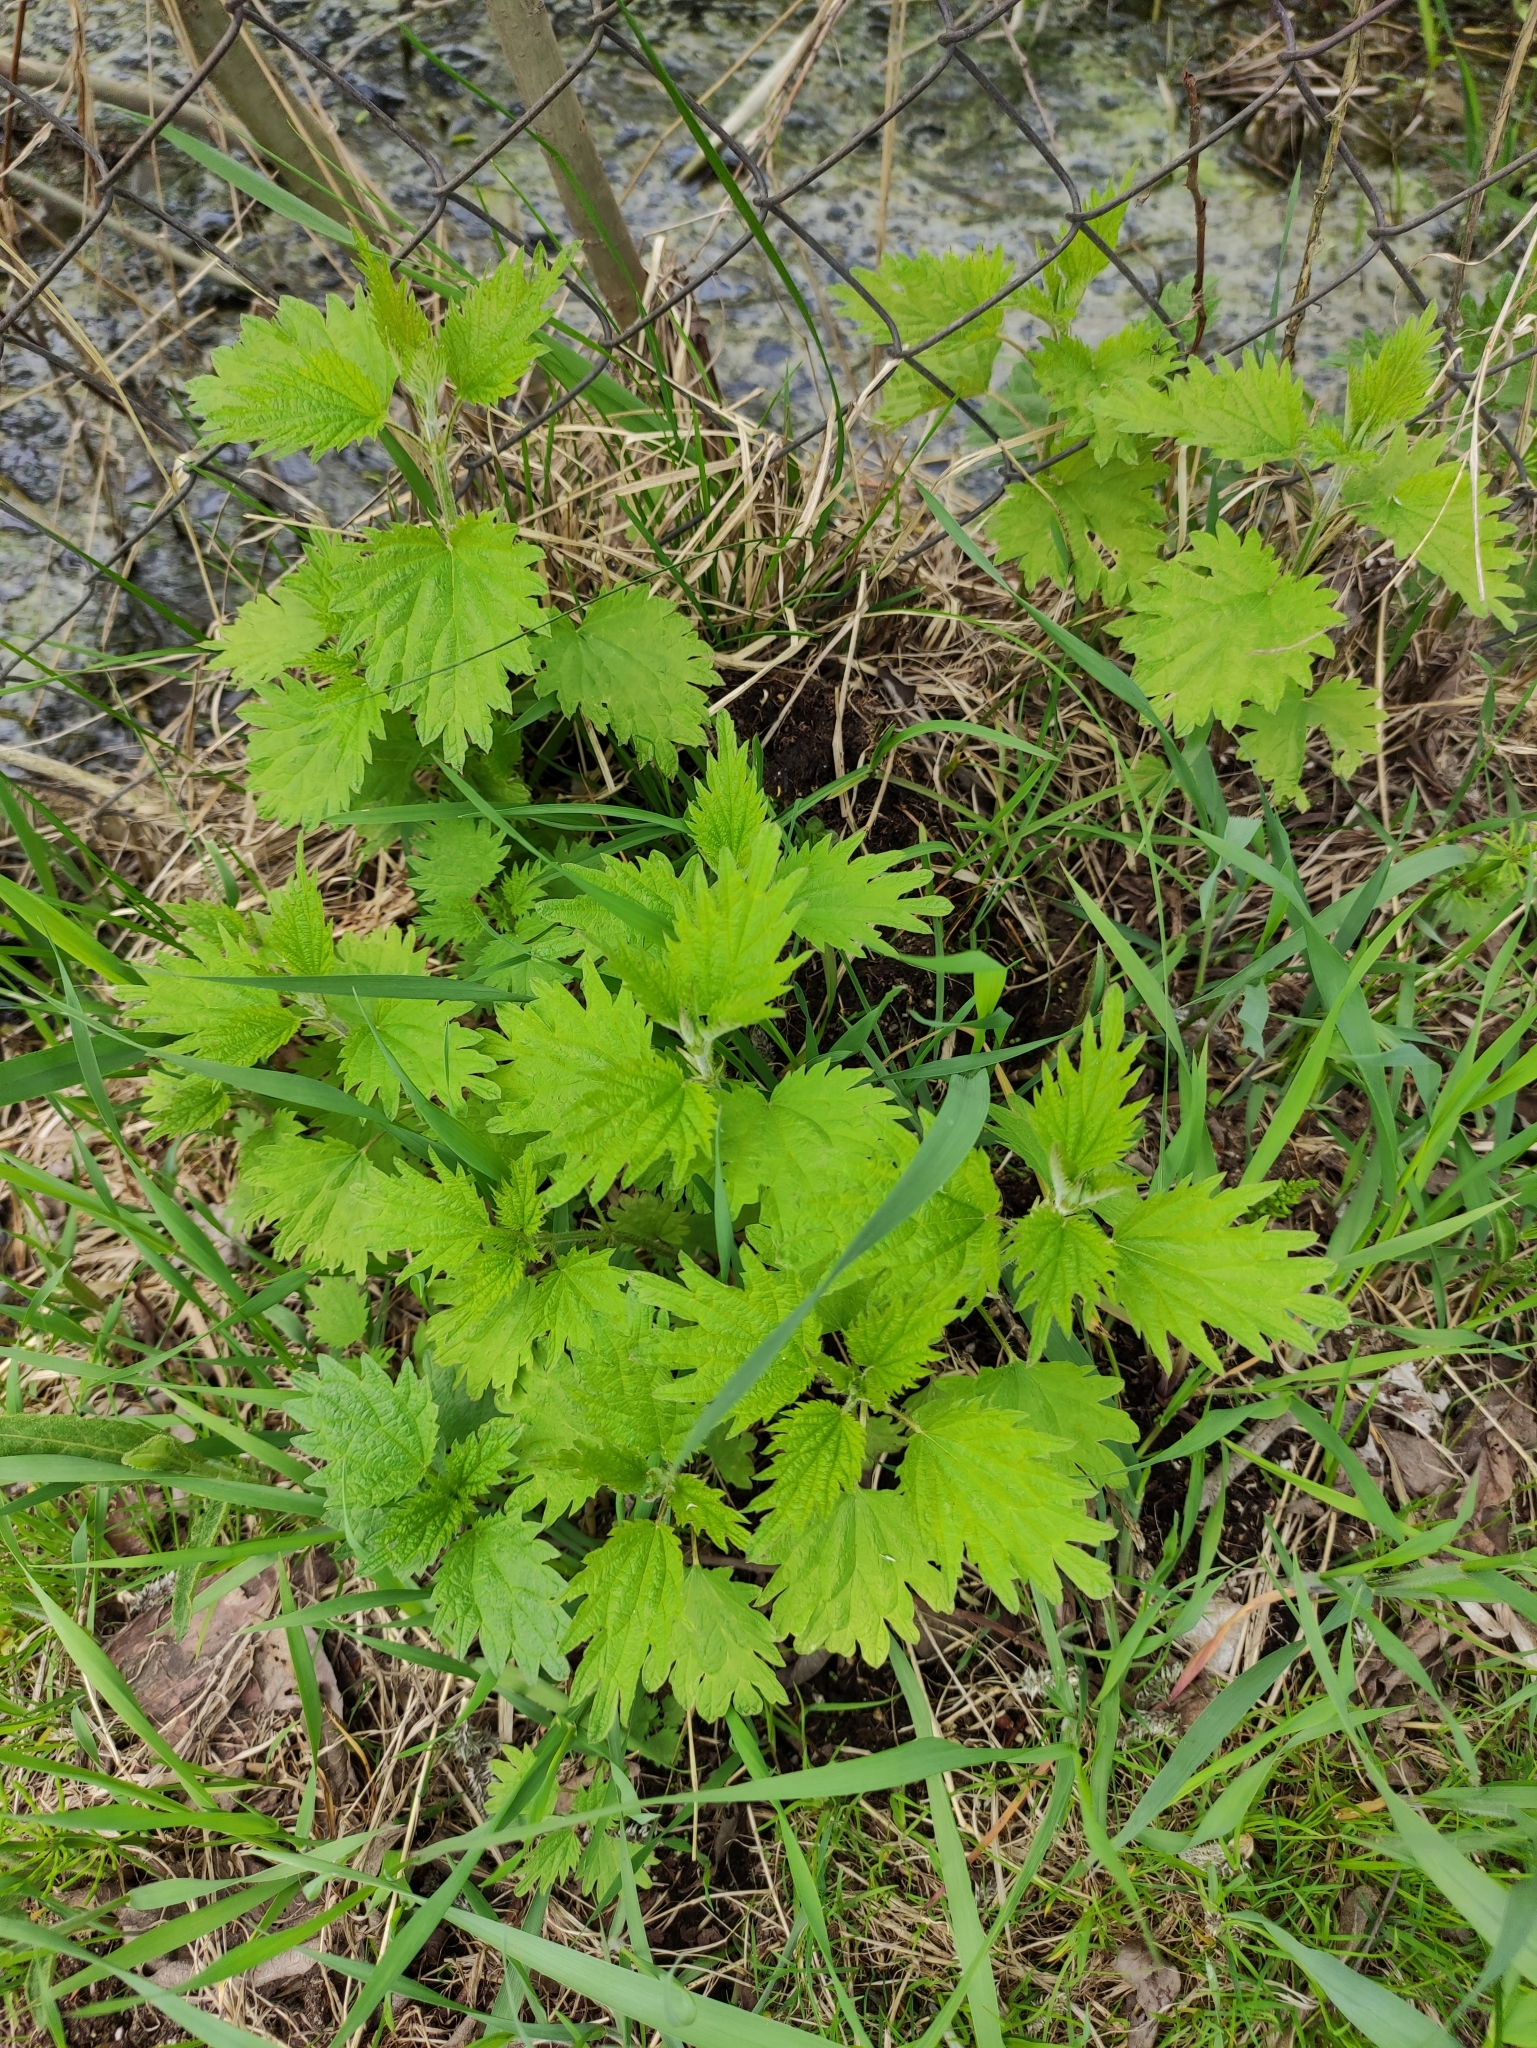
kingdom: Plantae
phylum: Tracheophyta
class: Magnoliopsida
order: Rosales
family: Urticaceae
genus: Urtica
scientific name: Urtica dioica
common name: Common nettle
